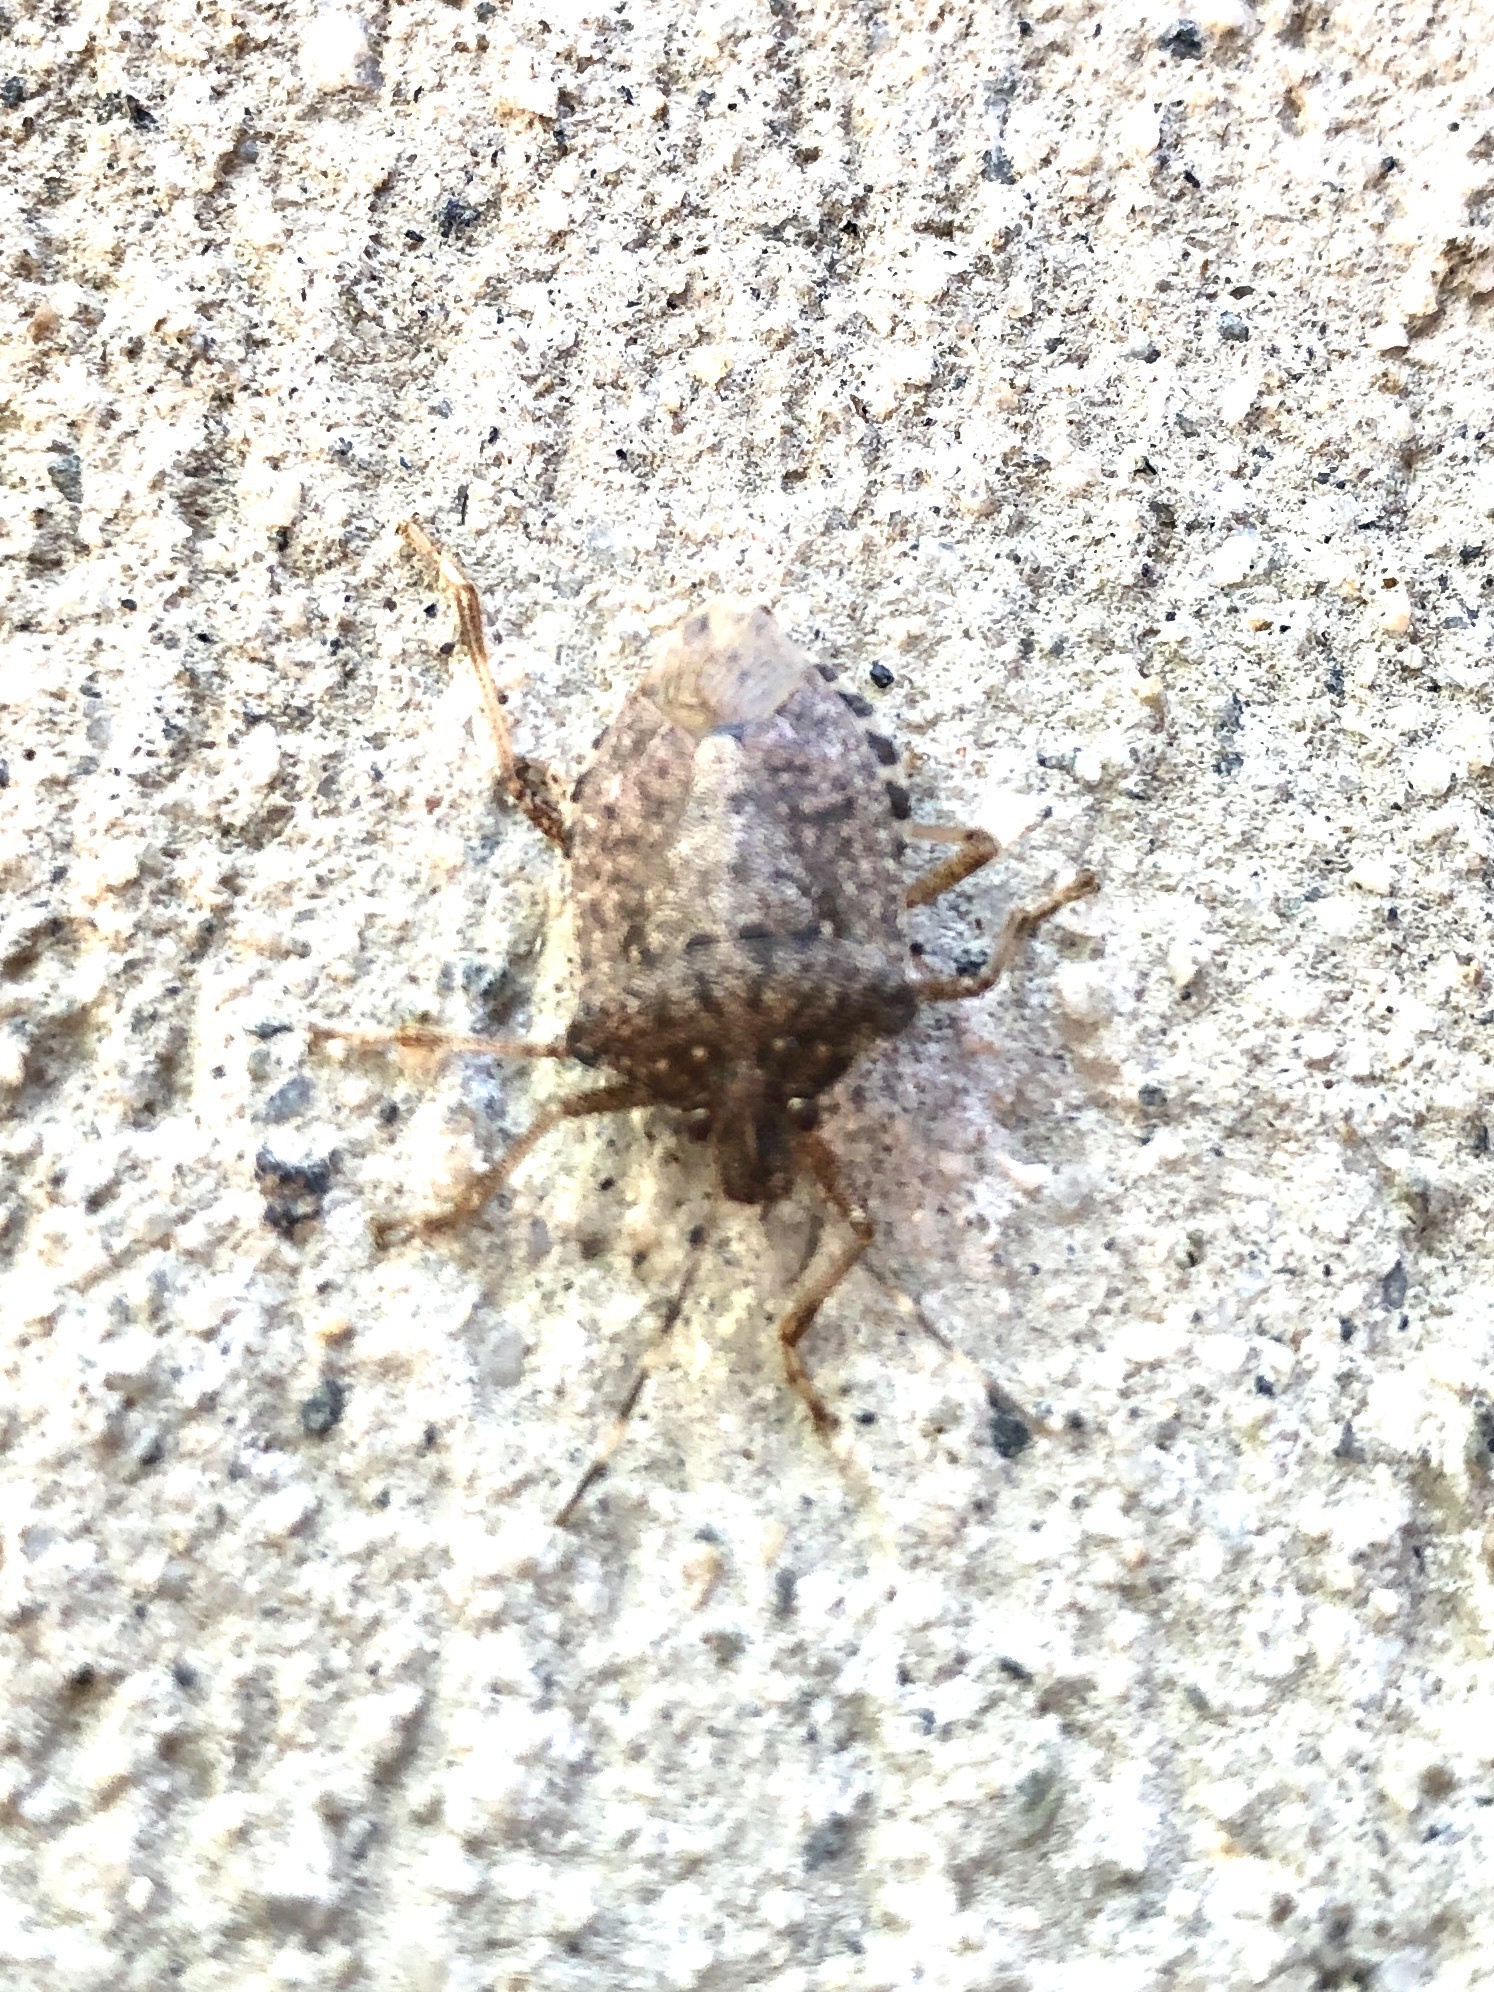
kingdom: Animalia
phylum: Arthropoda
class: Insecta
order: Hemiptera
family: Pentatomidae
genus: Halyomorpha
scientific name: Halyomorpha halys
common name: Brown marmorated stink bug
